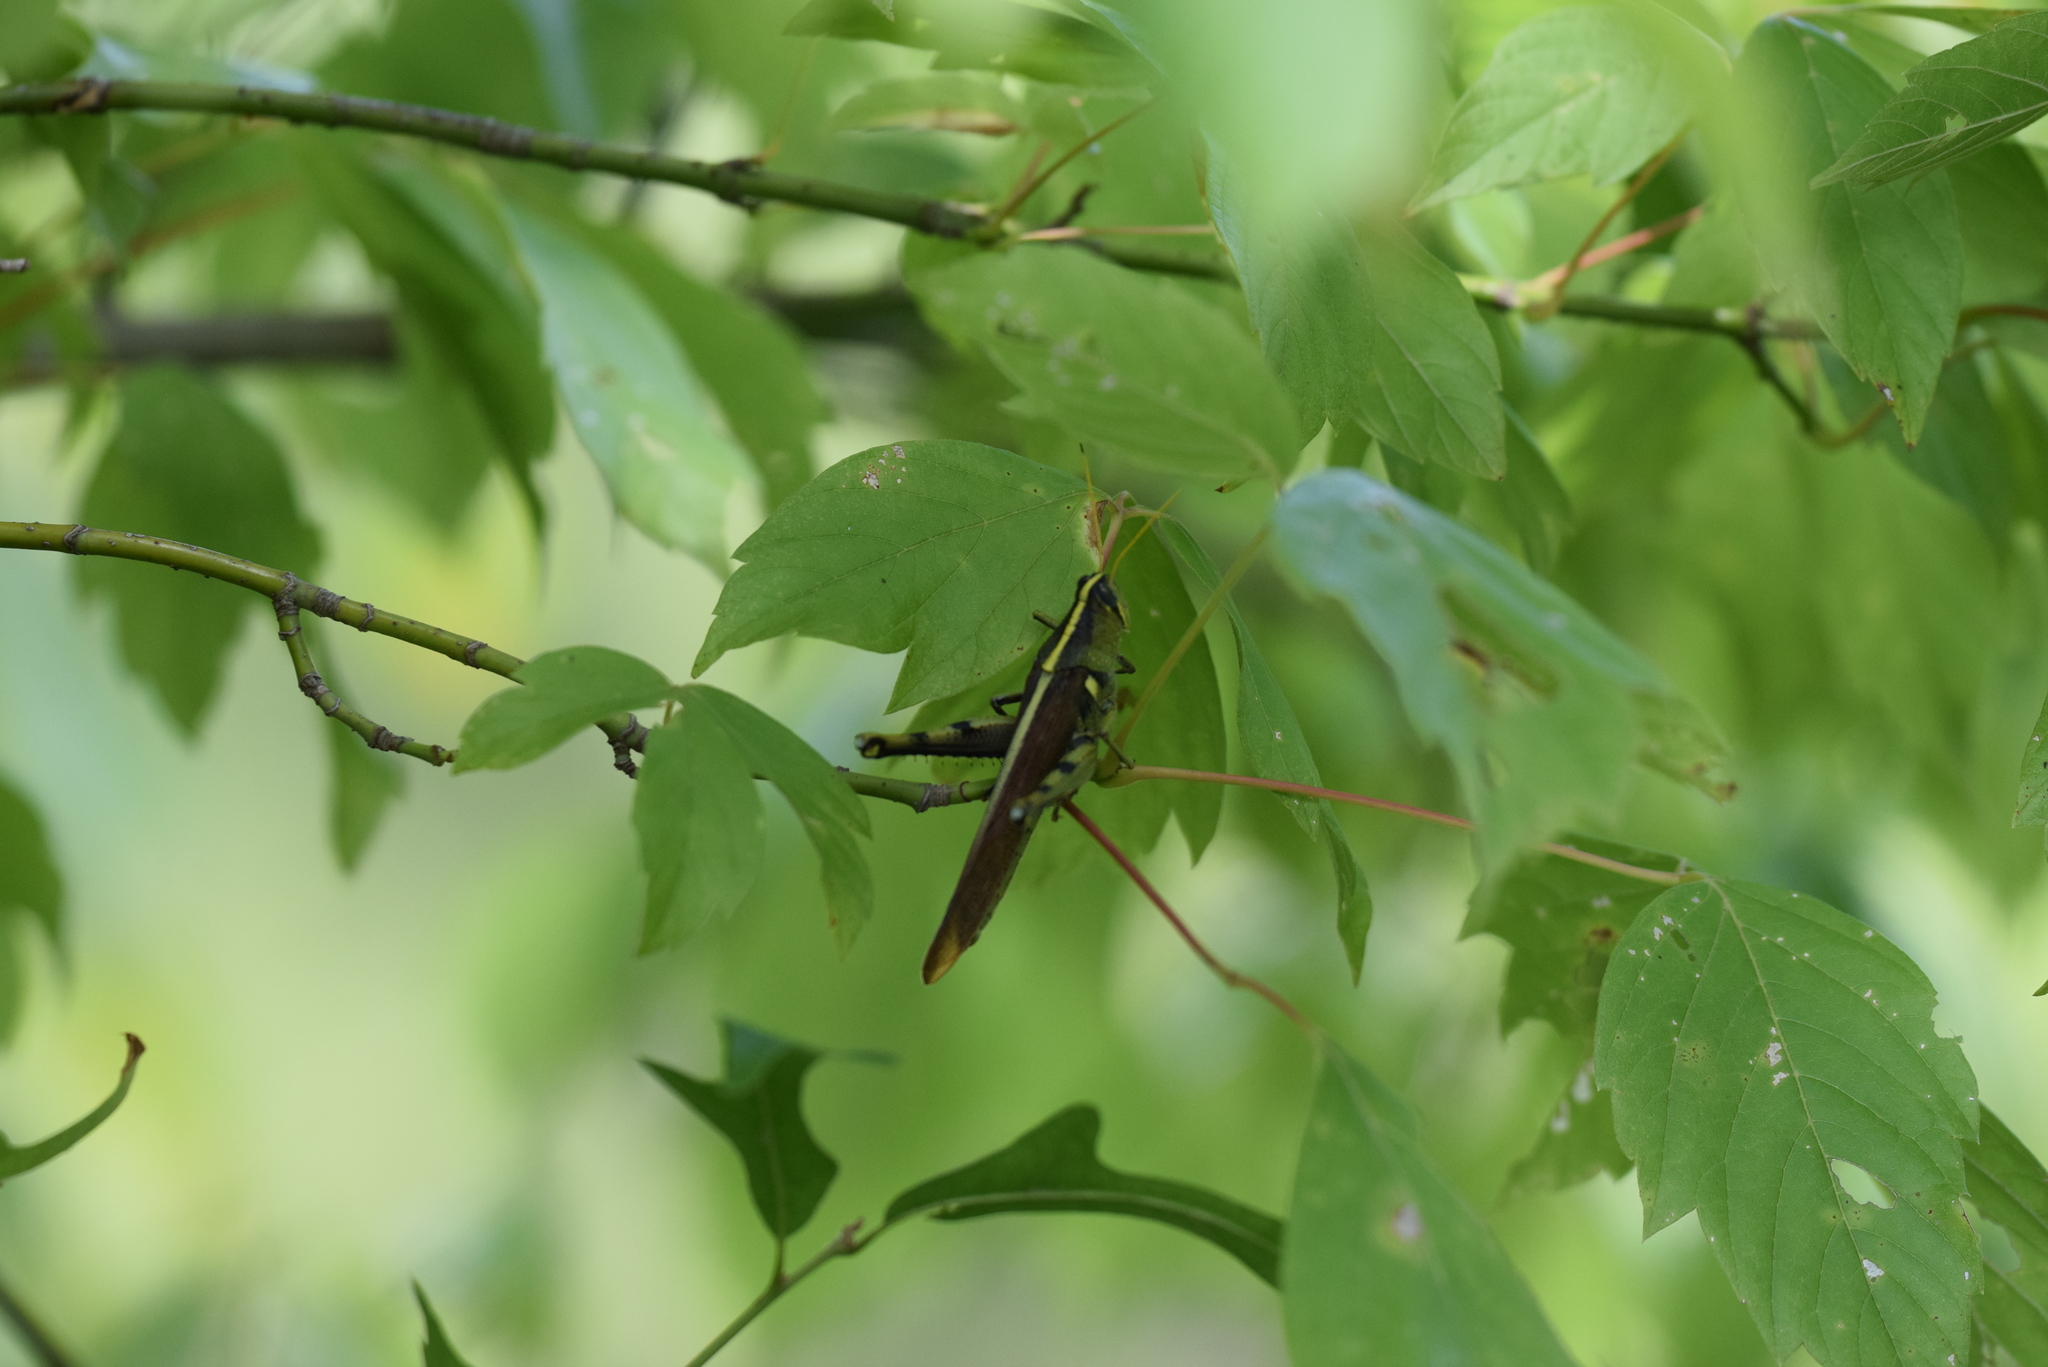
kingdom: Animalia
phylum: Arthropoda
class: Insecta
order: Orthoptera
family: Acrididae
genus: Schistocerca
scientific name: Schistocerca obscura
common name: Obscure bird grasshopper
